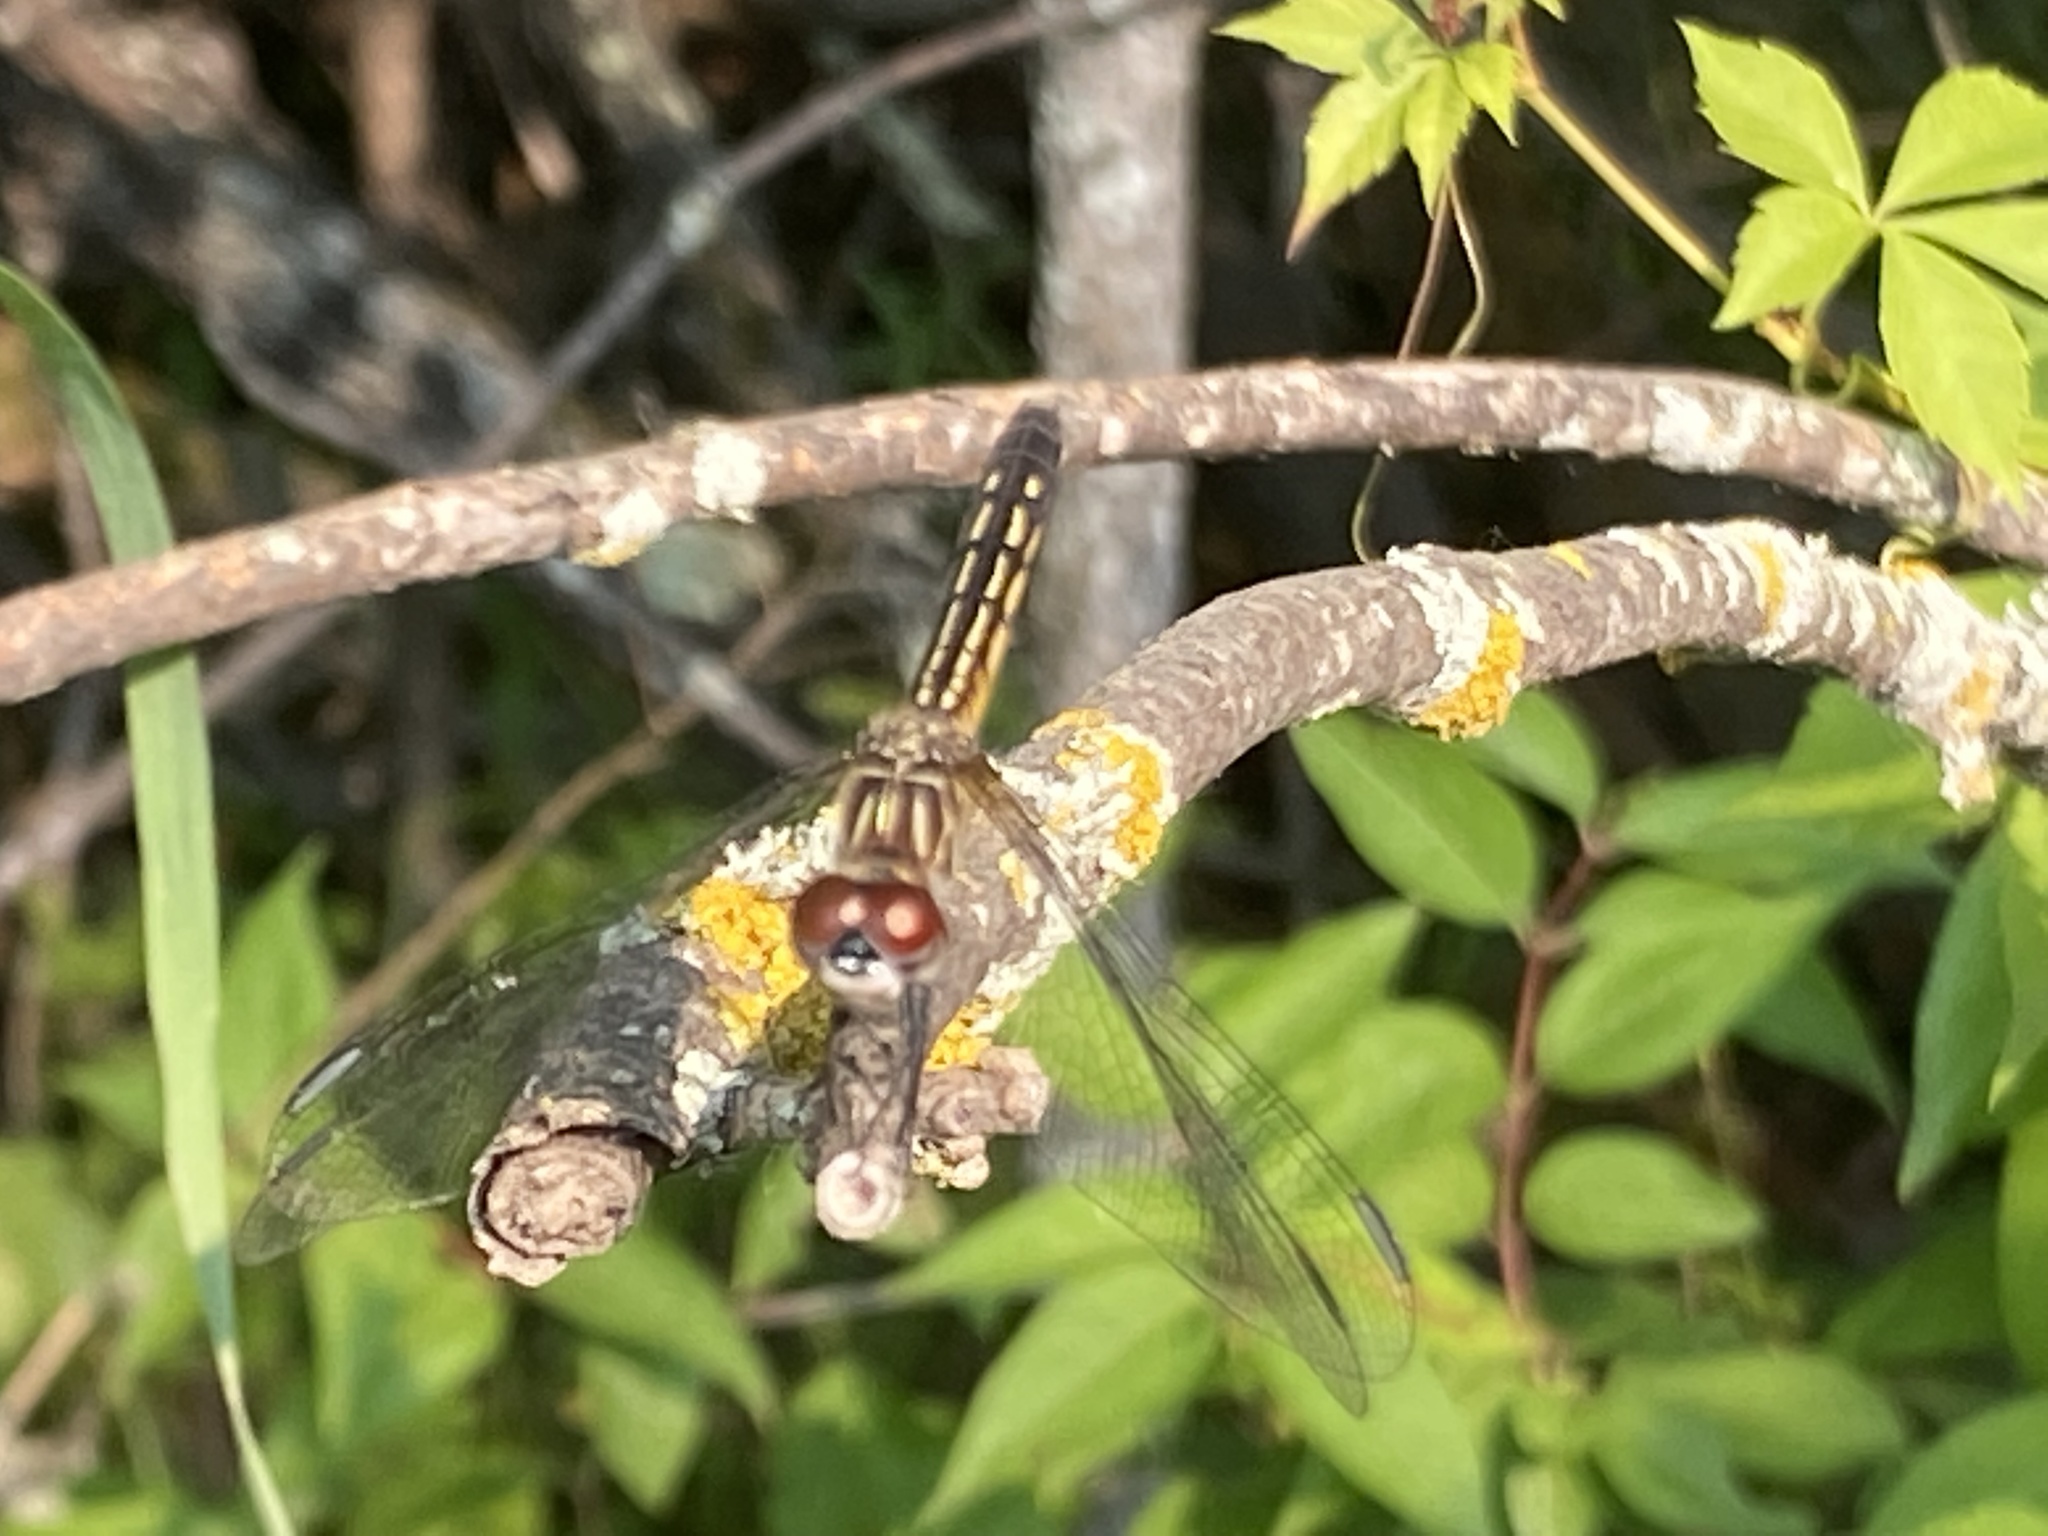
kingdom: Animalia
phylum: Arthropoda
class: Insecta
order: Odonata
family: Libellulidae
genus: Pachydiplax
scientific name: Pachydiplax longipennis
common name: Blue dasher
